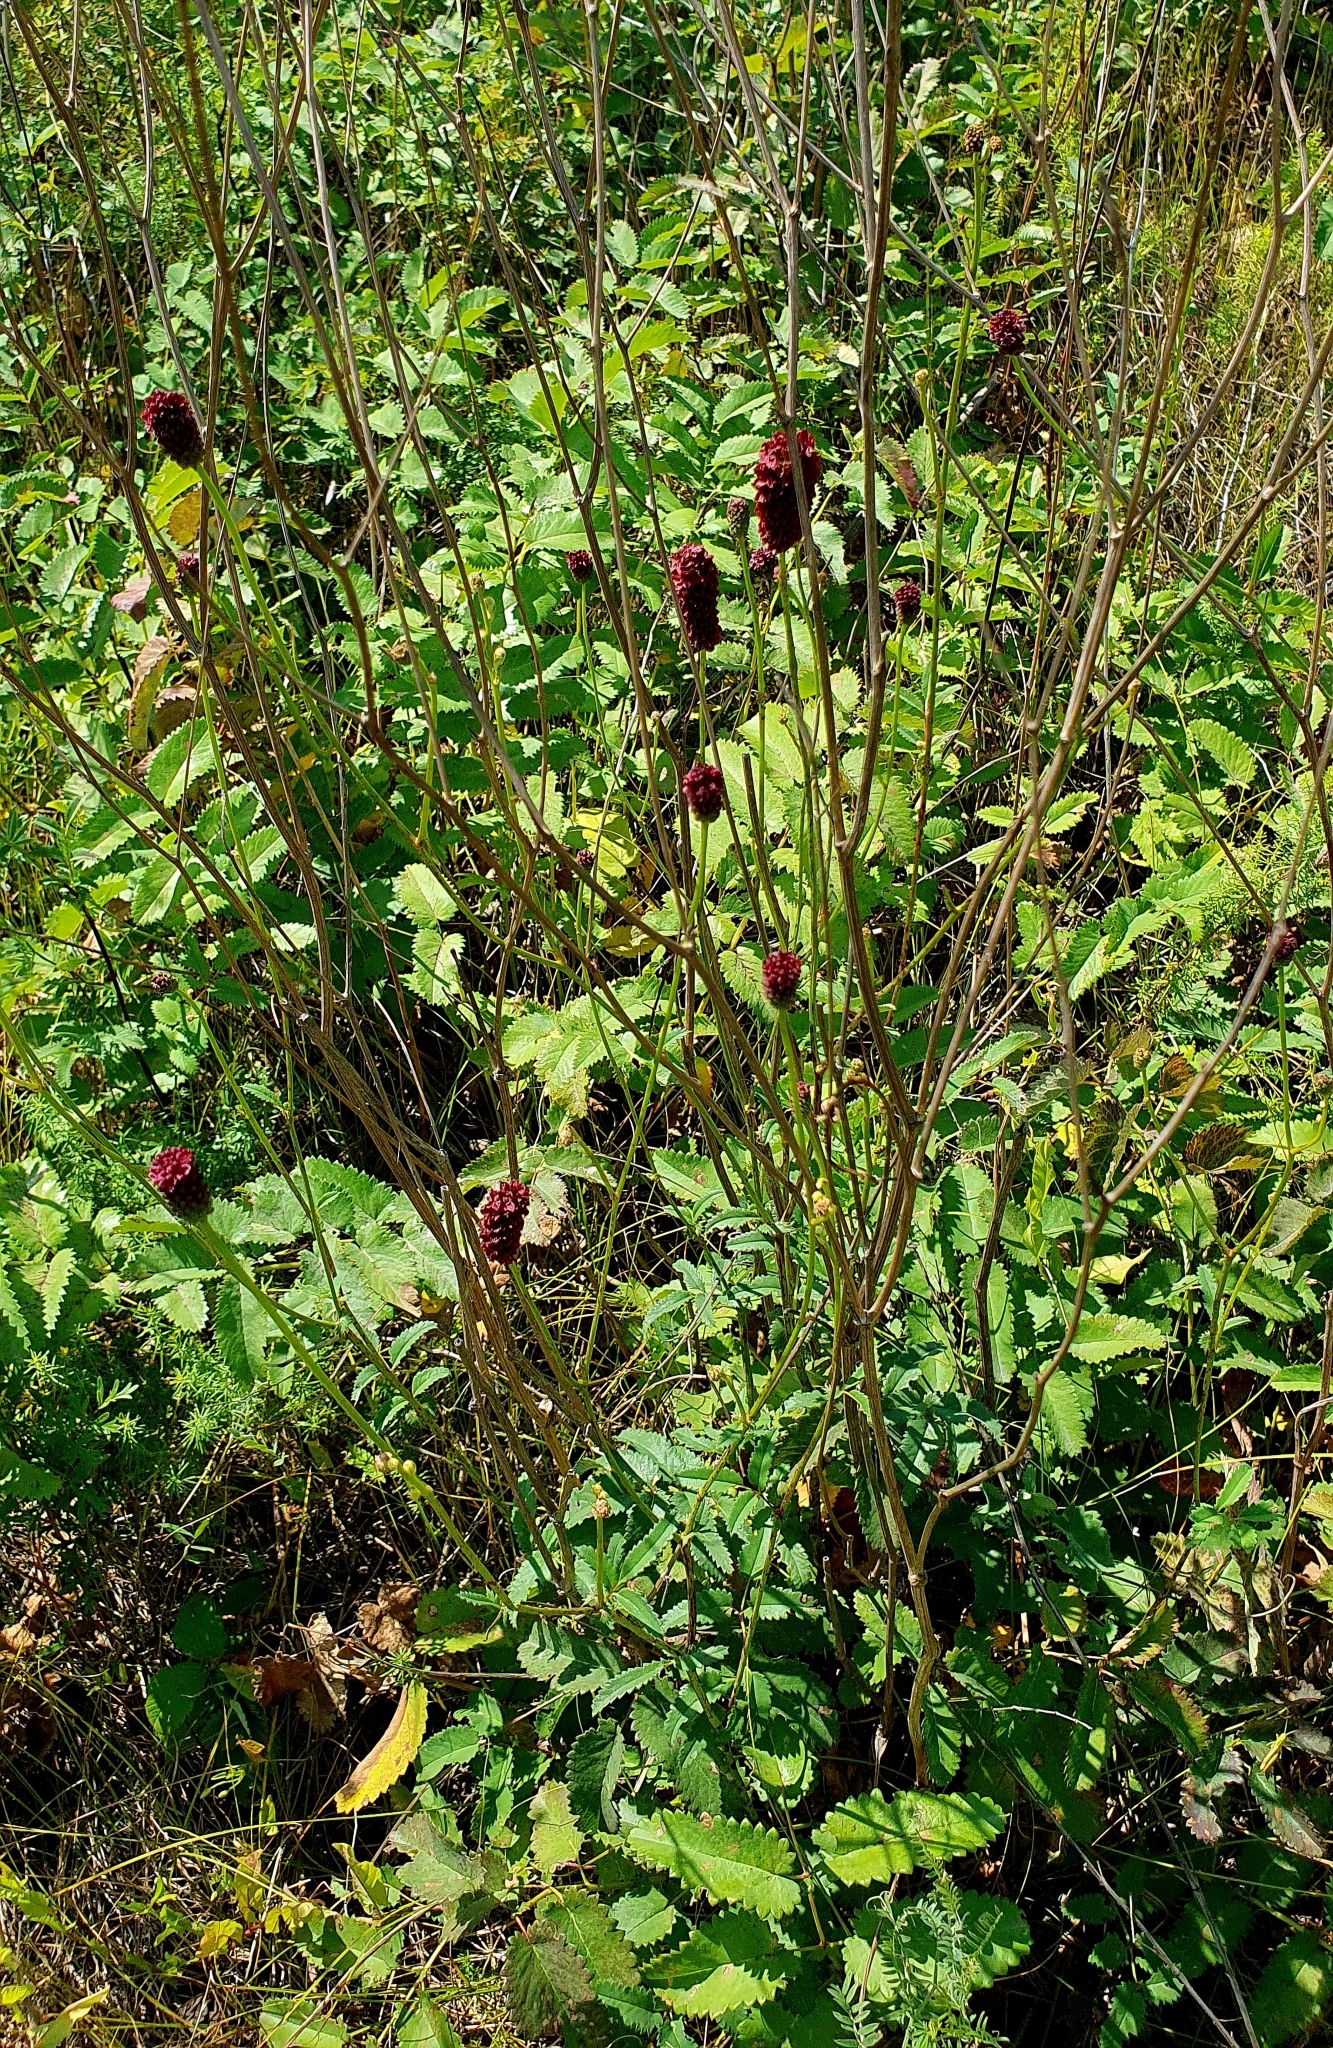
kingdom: Plantae
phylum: Tracheophyta
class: Magnoliopsida
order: Rosales
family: Rosaceae
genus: Sanguisorba
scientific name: Sanguisorba officinalis
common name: Great burnet
